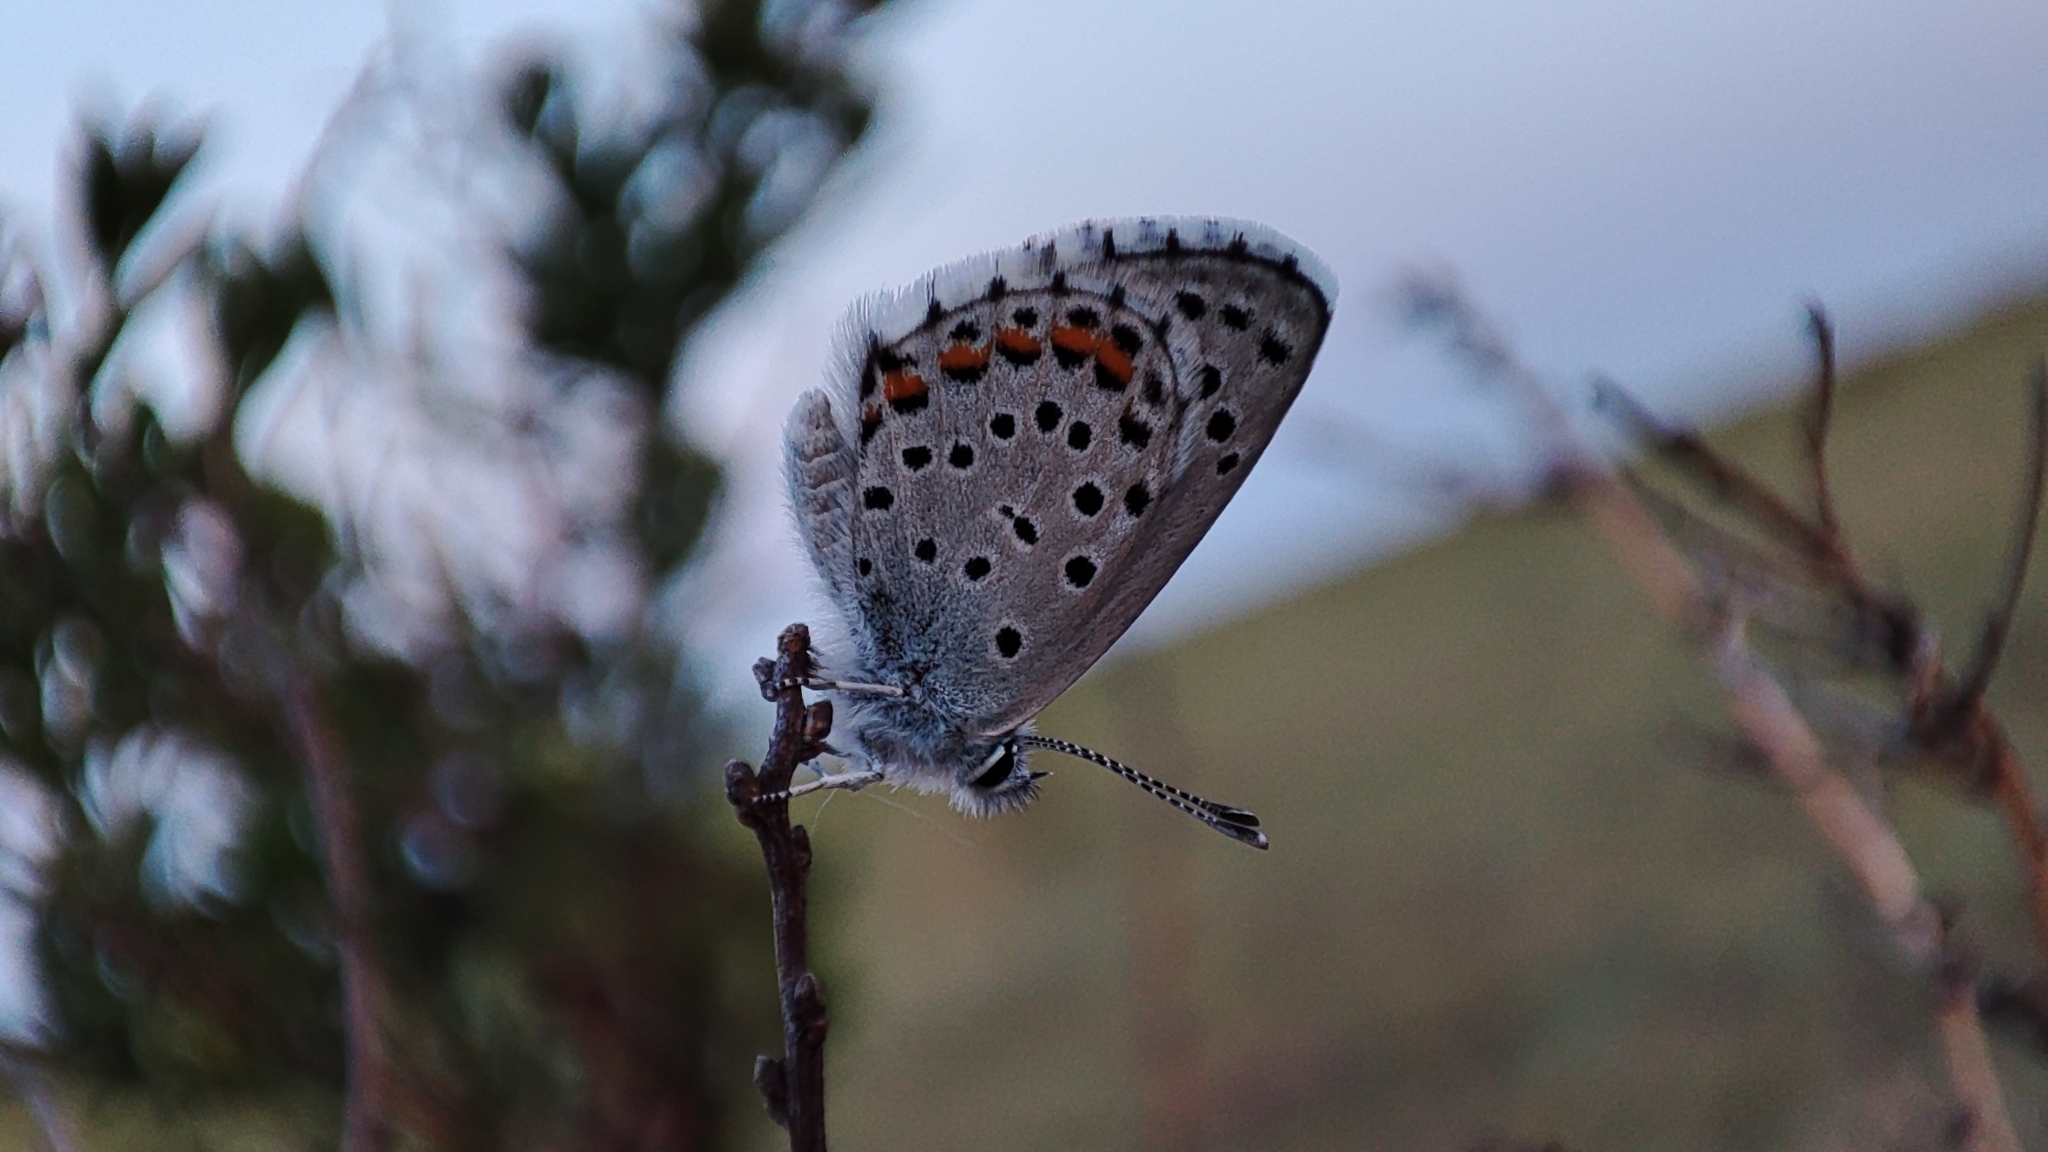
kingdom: Animalia
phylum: Arthropoda
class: Insecta
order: Lepidoptera
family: Lycaenidae
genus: Pseudophilotes
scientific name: Pseudophilotes baton
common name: Baton blue
